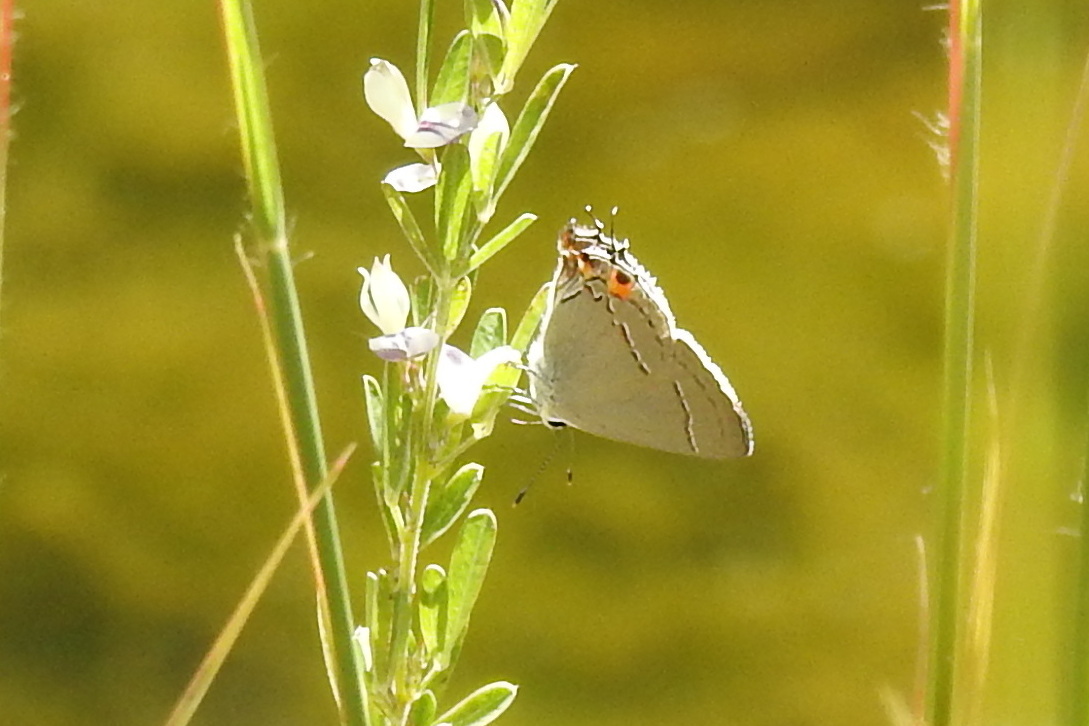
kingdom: Animalia
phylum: Arthropoda
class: Insecta
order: Lepidoptera
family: Lycaenidae
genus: Strymon
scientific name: Strymon melinus
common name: Gray hairstreak
